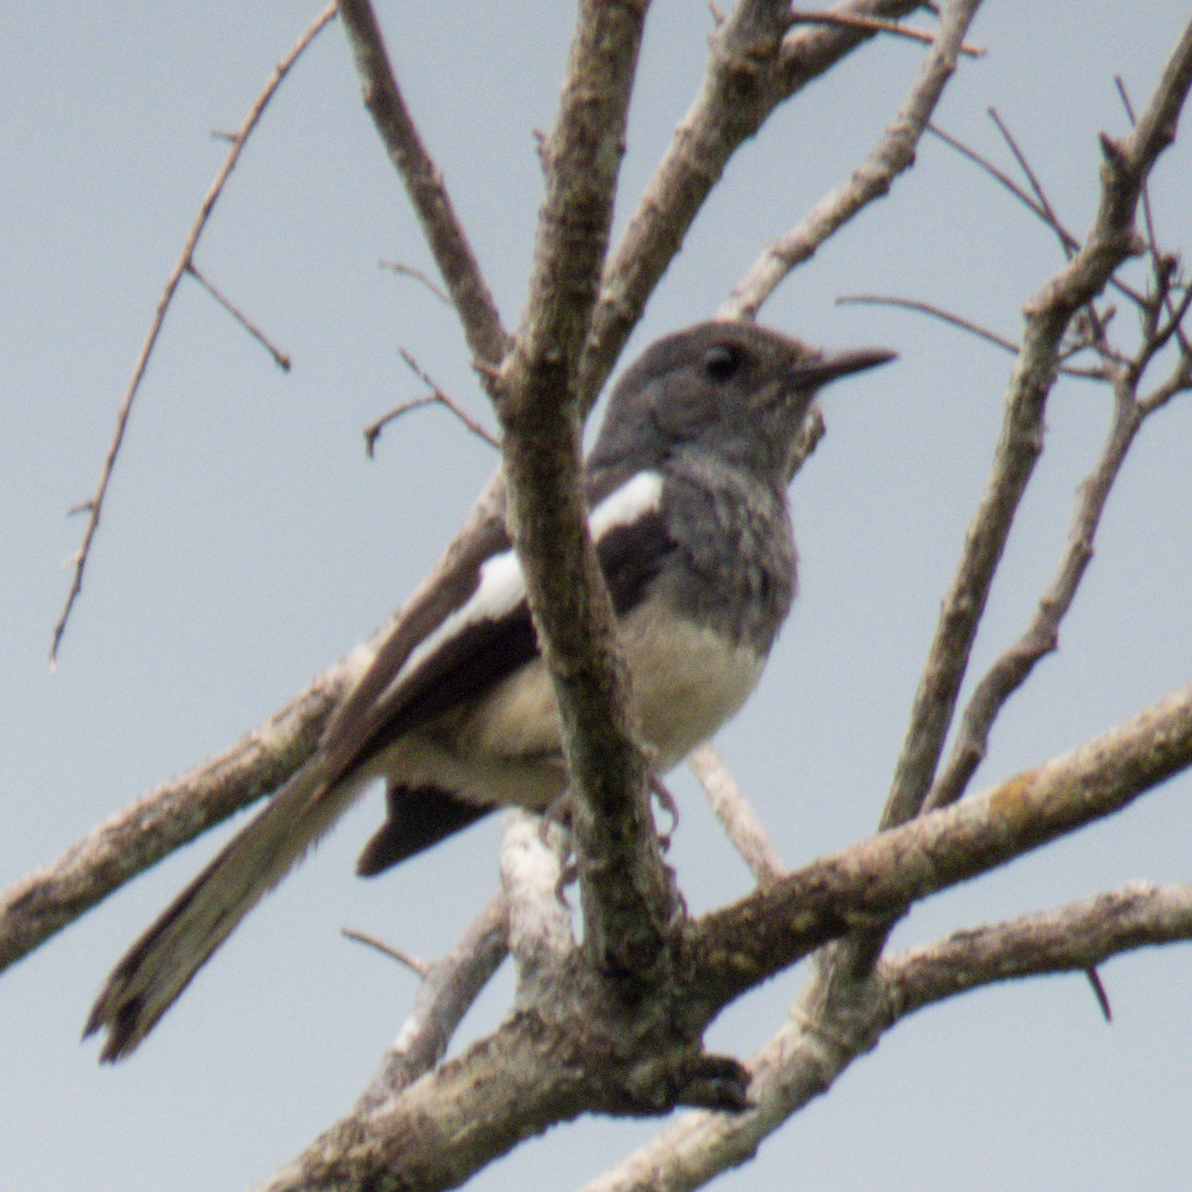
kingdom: Animalia
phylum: Chordata
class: Aves
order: Passeriformes
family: Muscicapidae
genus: Copsychus
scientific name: Copsychus saularis
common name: Oriental magpie-robin
